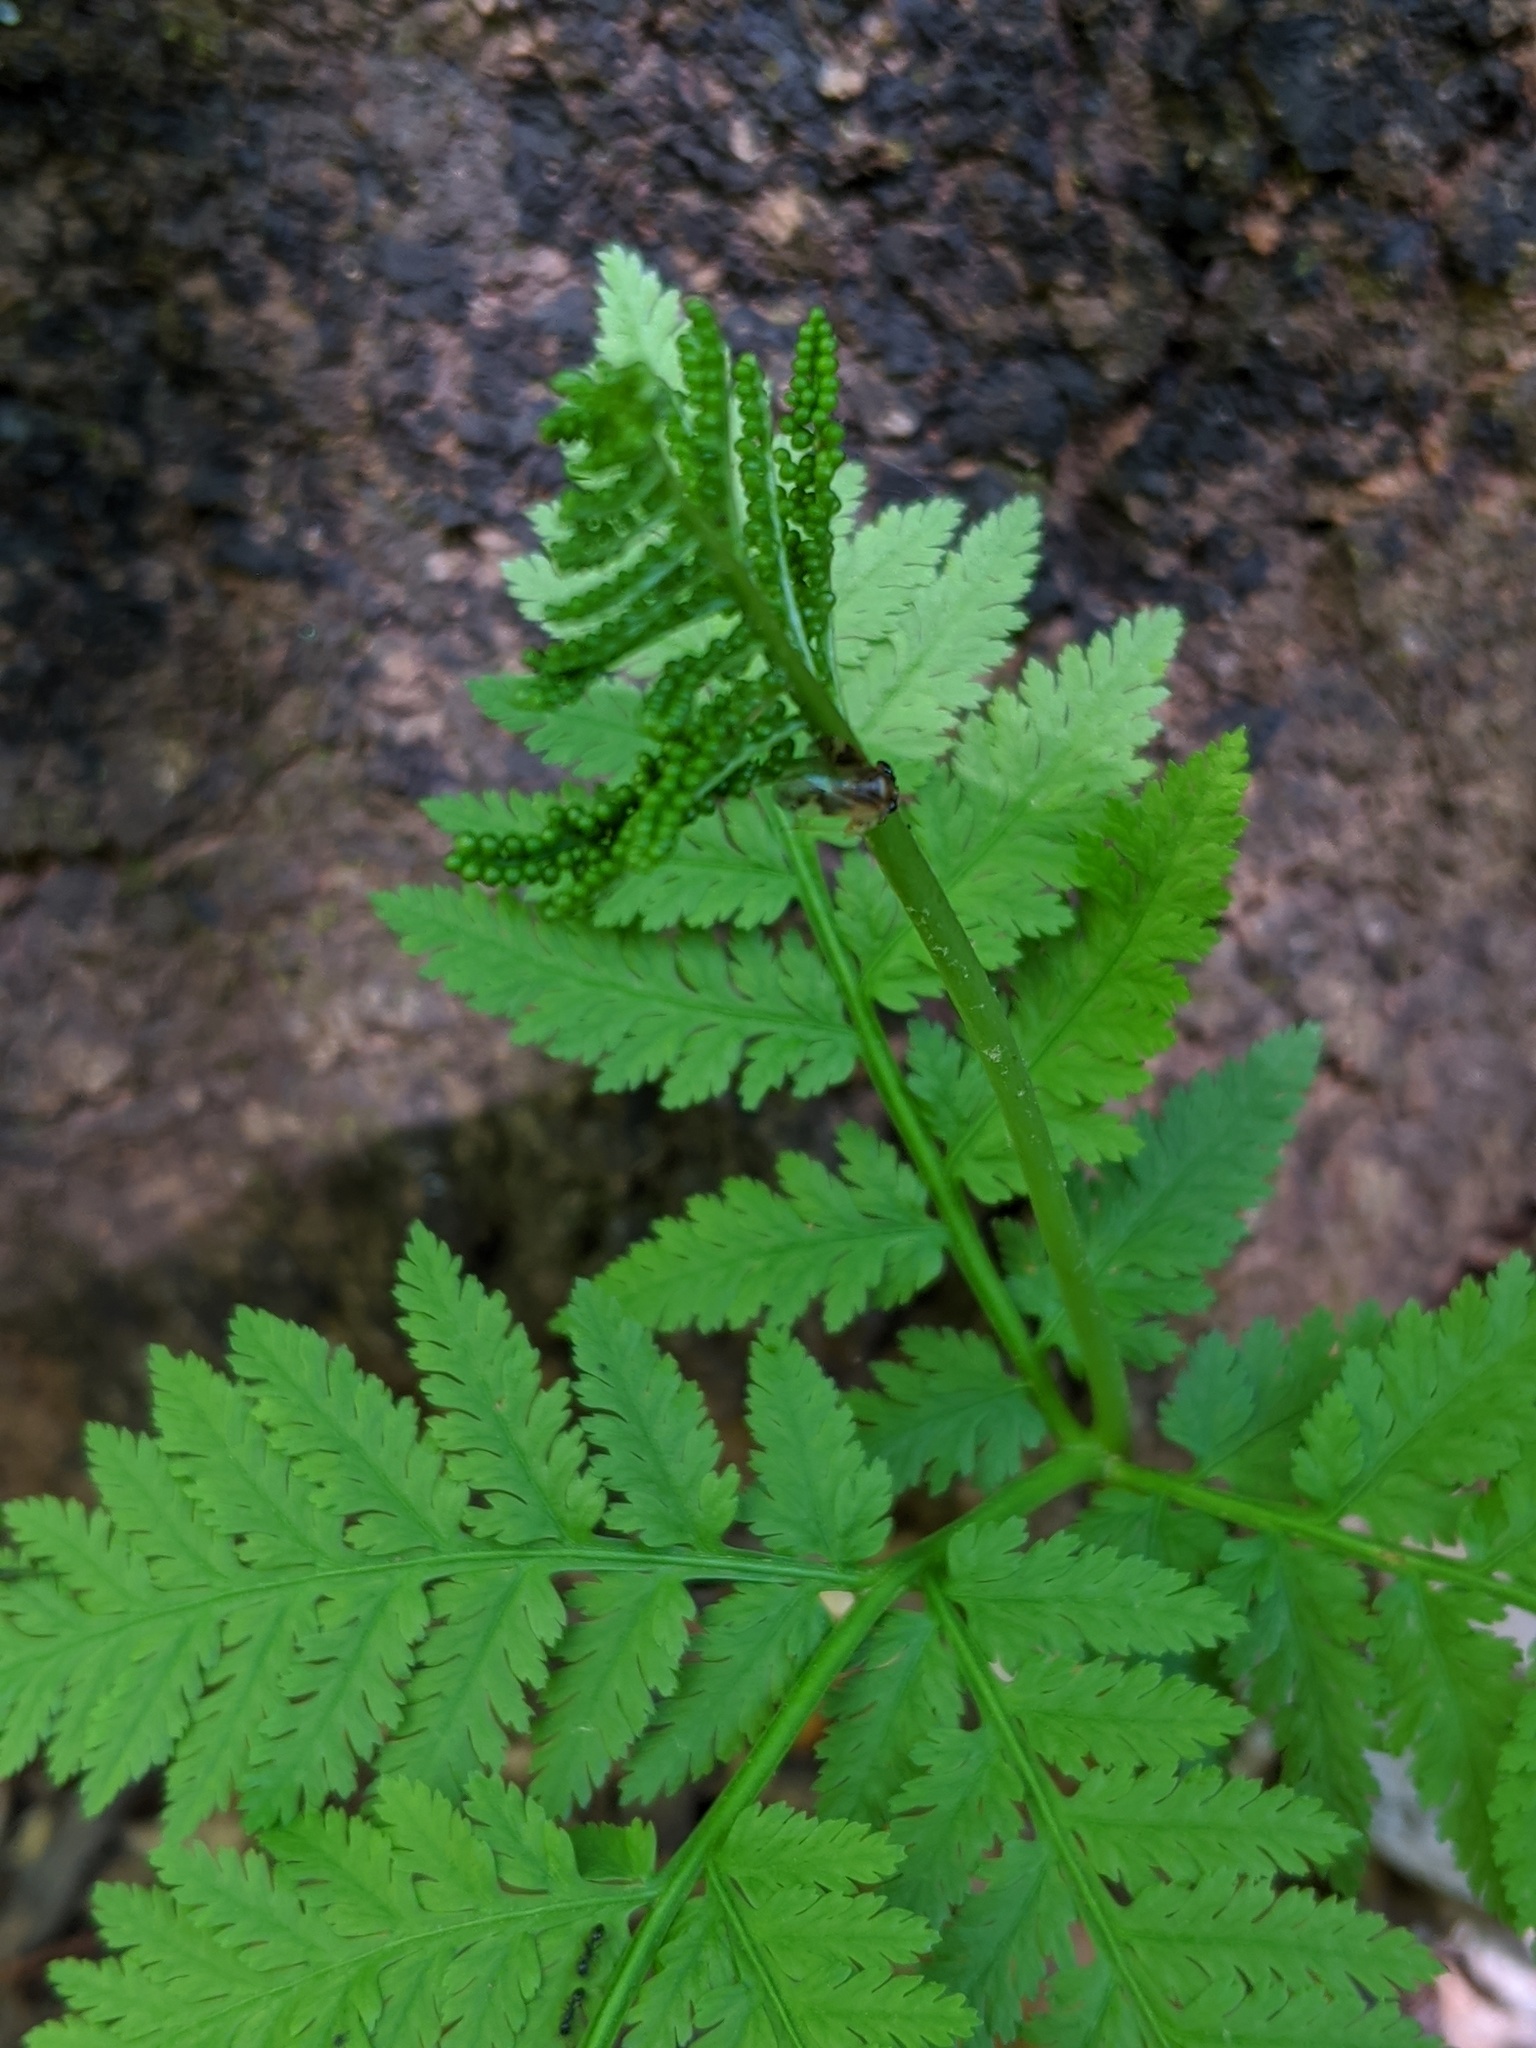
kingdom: Plantae
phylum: Tracheophyta
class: Polypodiopsida
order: Ophioglossales
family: Ophioglossaceae
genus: Botrypus
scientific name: Botrypus virginianus
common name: Common grapefern
